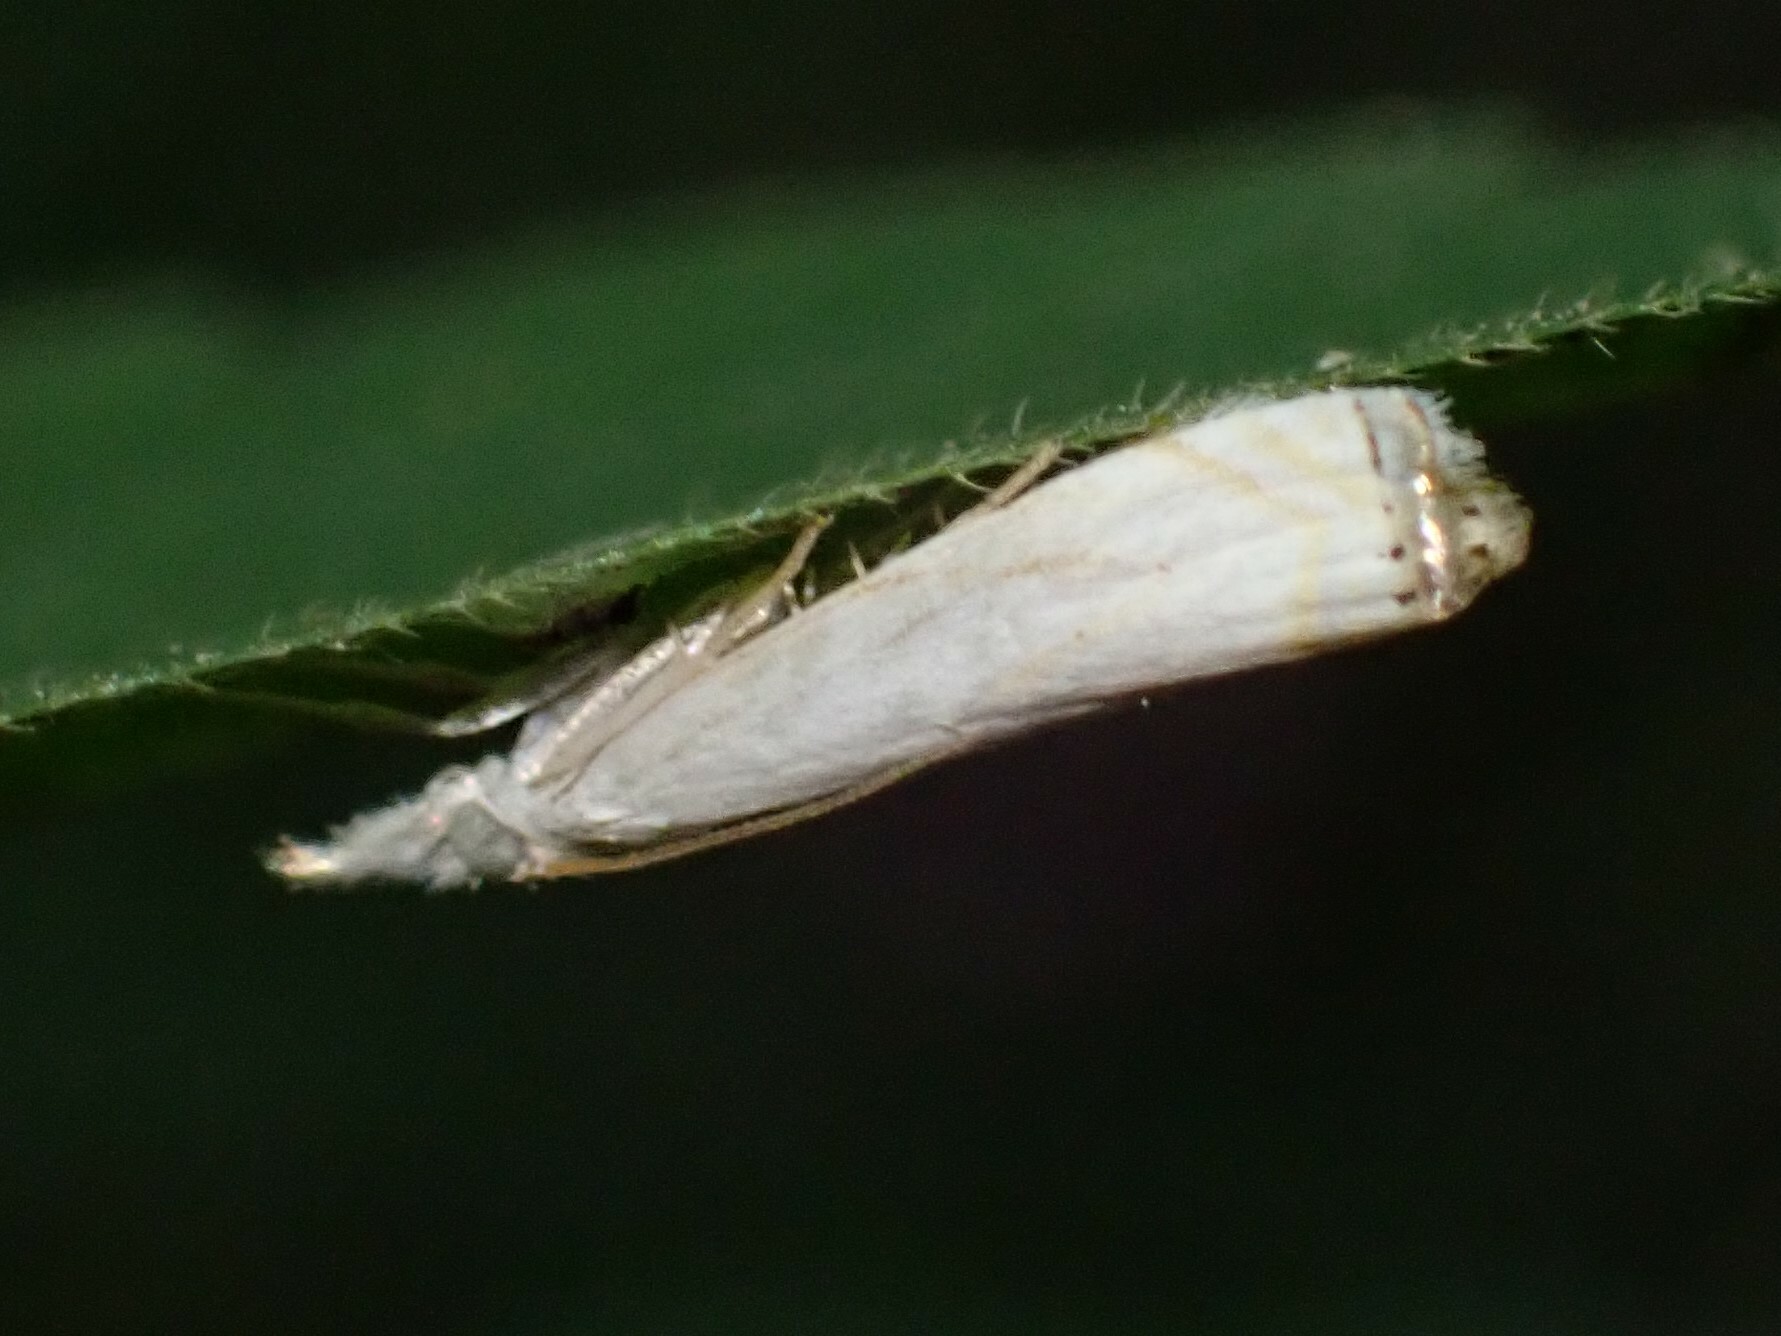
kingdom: Animalia
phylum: Arthropoda
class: Insecta
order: Lepidoptera
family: Crambidae
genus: Crambus
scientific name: Crambus albellus
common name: Small white grass-veneer
